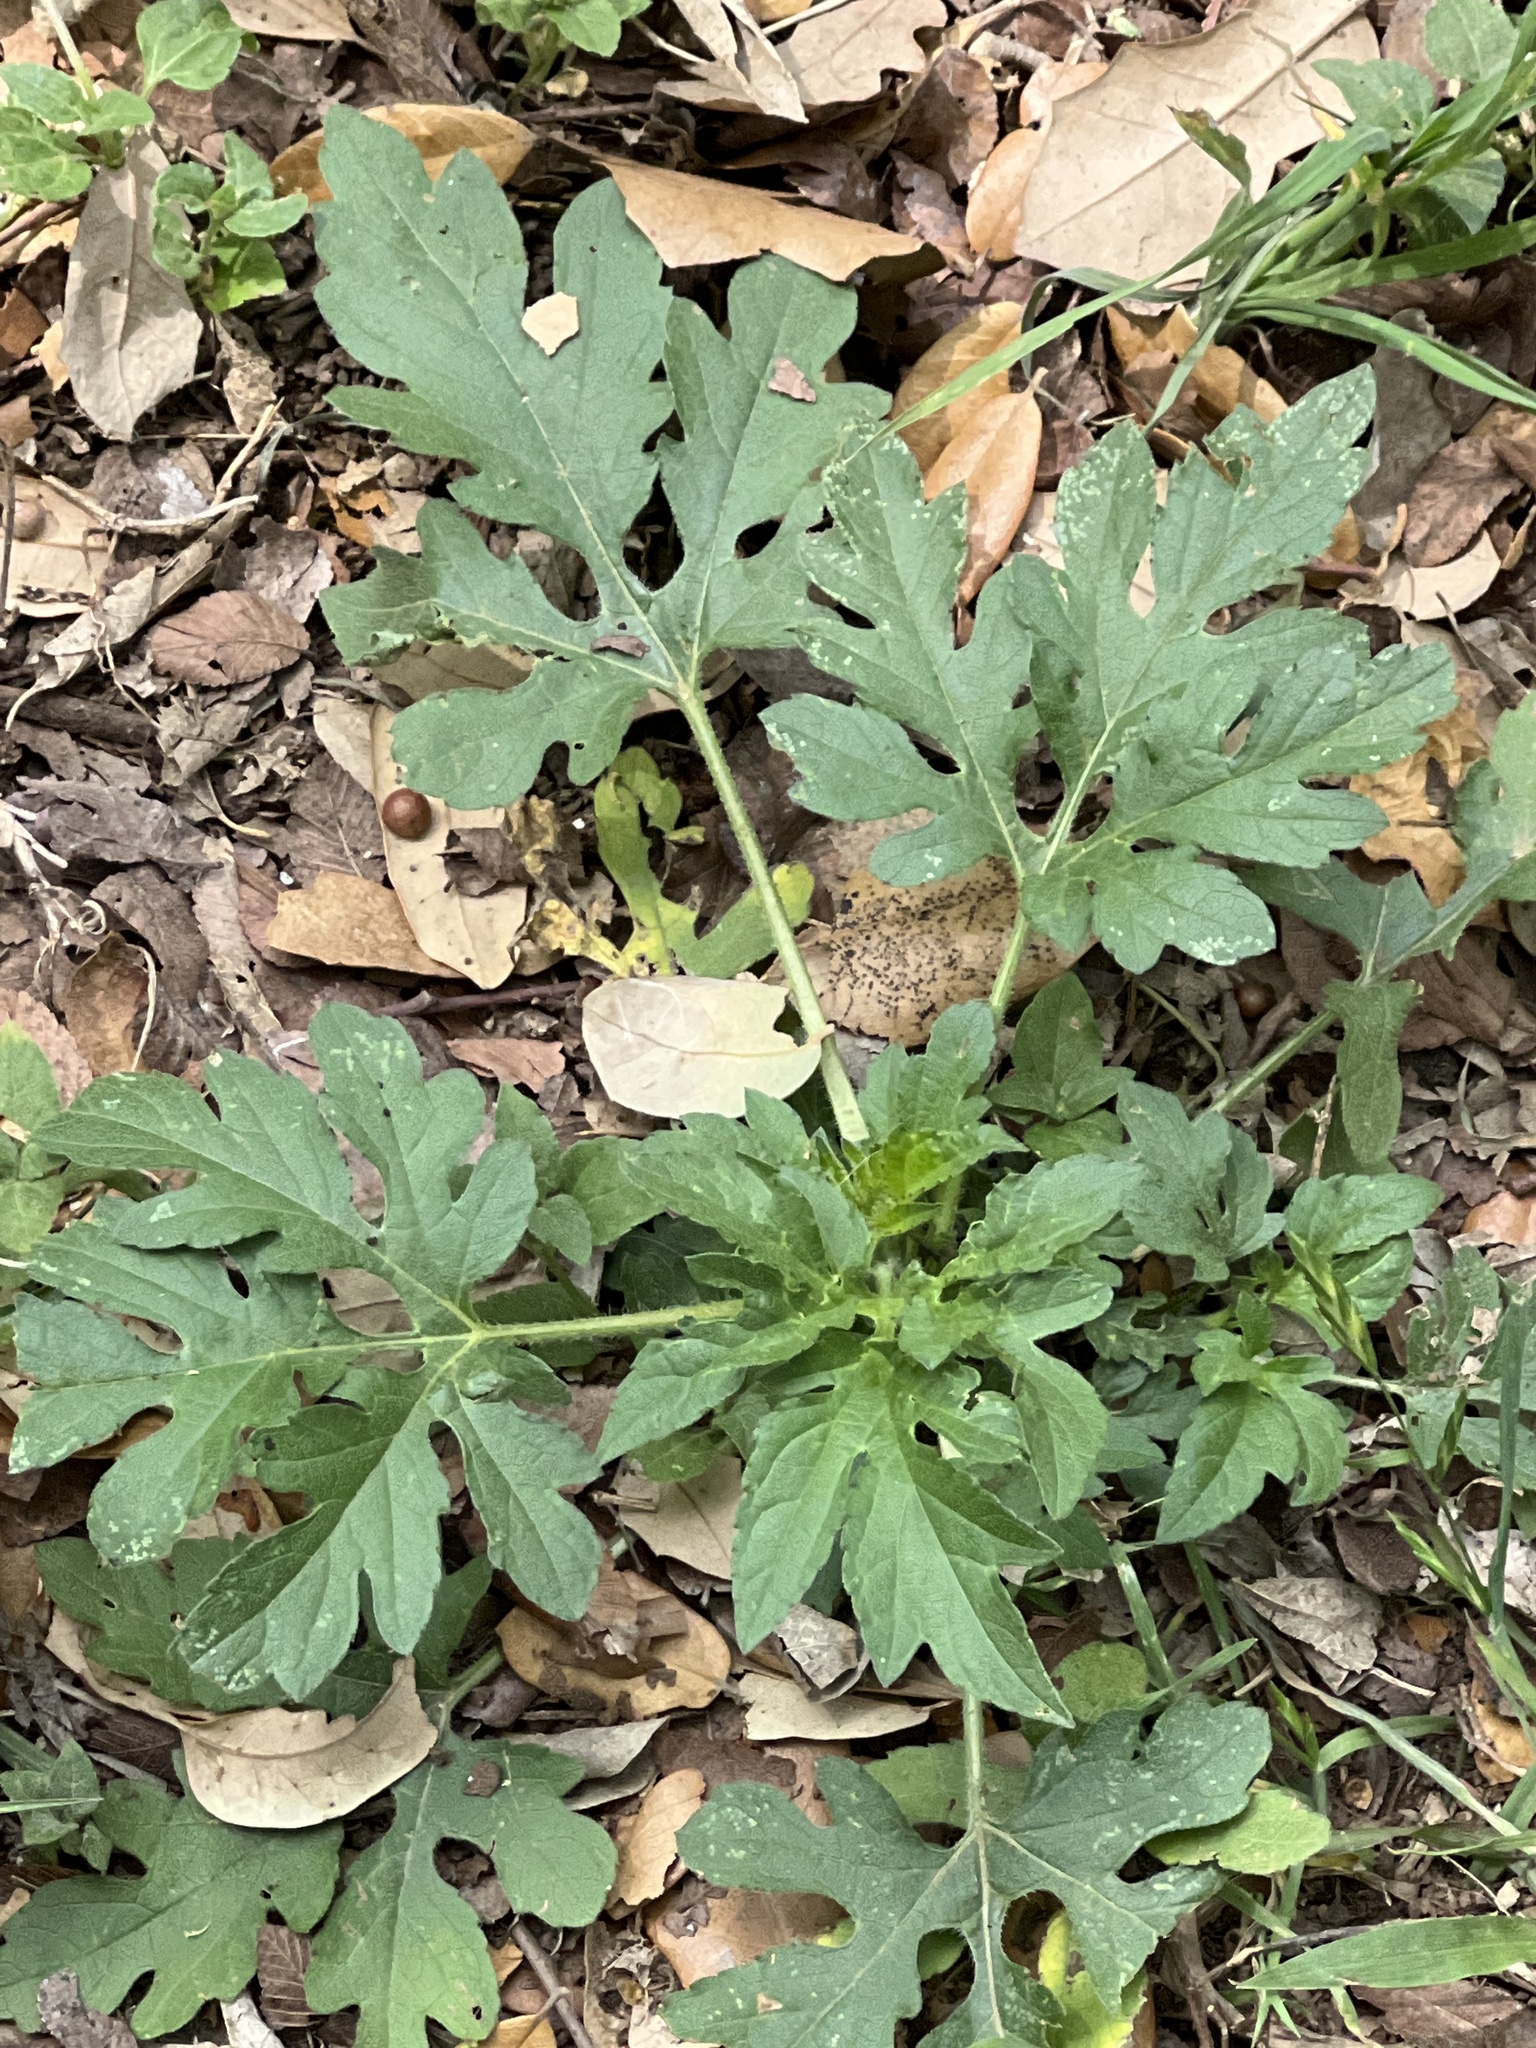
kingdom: Plantae
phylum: Tracheophyta
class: Magnoliopsida
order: Asterales
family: Asteraceae
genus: Ambrosia
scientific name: Ambrosia trifida
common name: Giant ragweed
